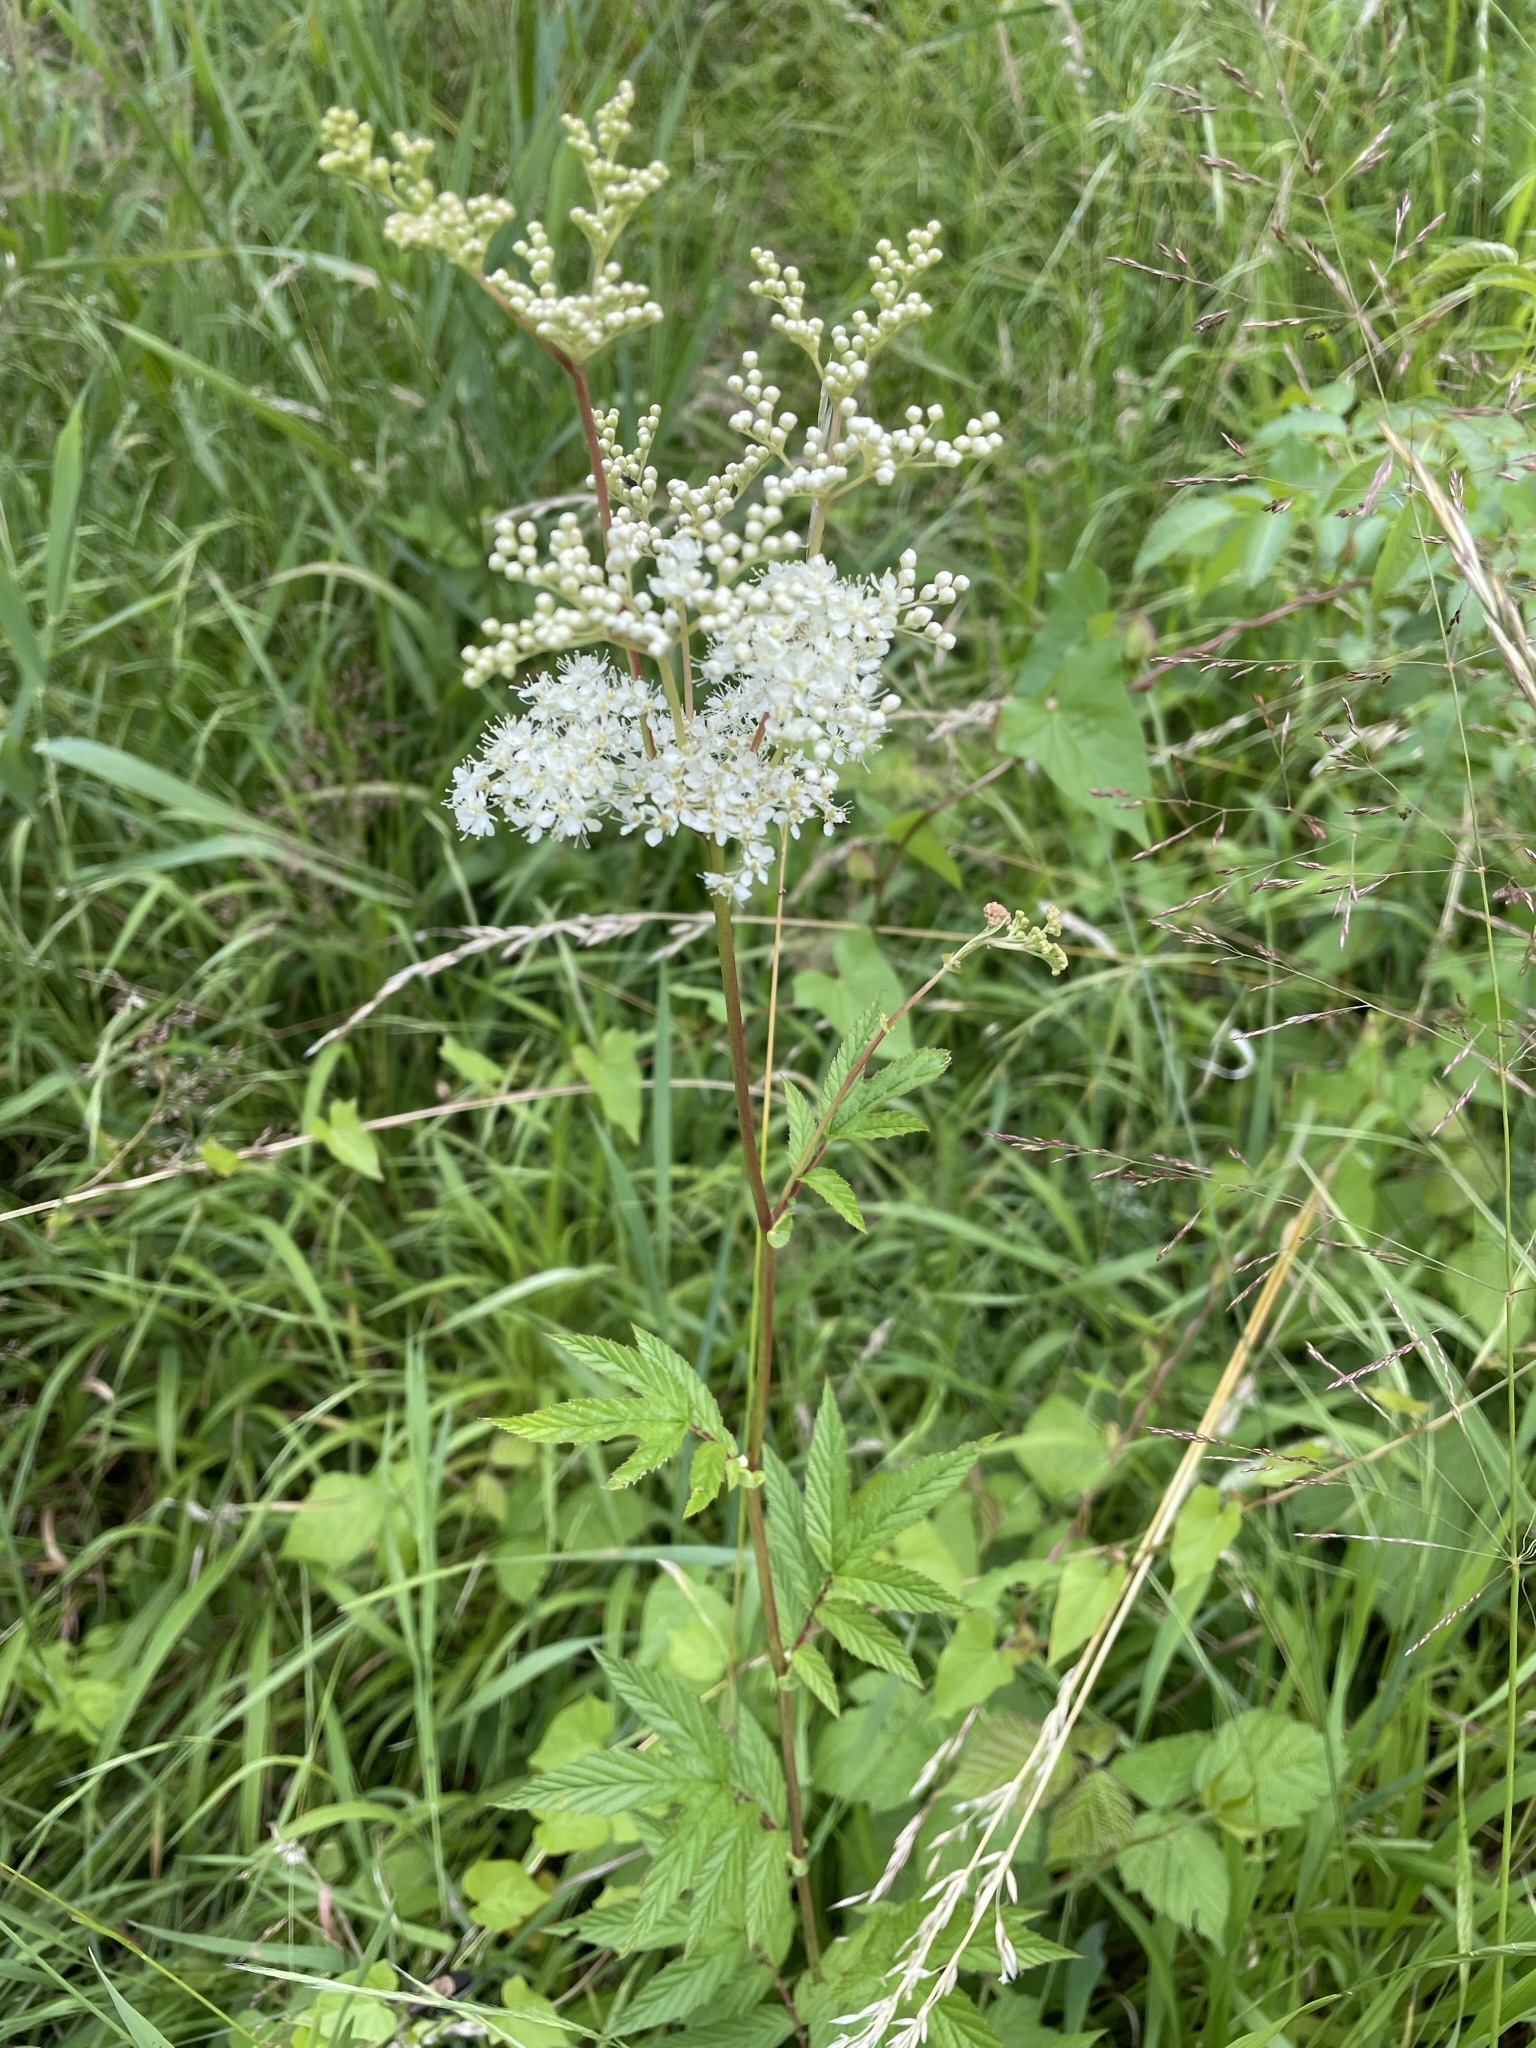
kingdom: Plantae
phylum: Tracheophyta
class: Magnoliopsida
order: Rosales
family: Rosaceae
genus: Filipendula
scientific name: Filipendula ulmaria
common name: Meadowsweet
